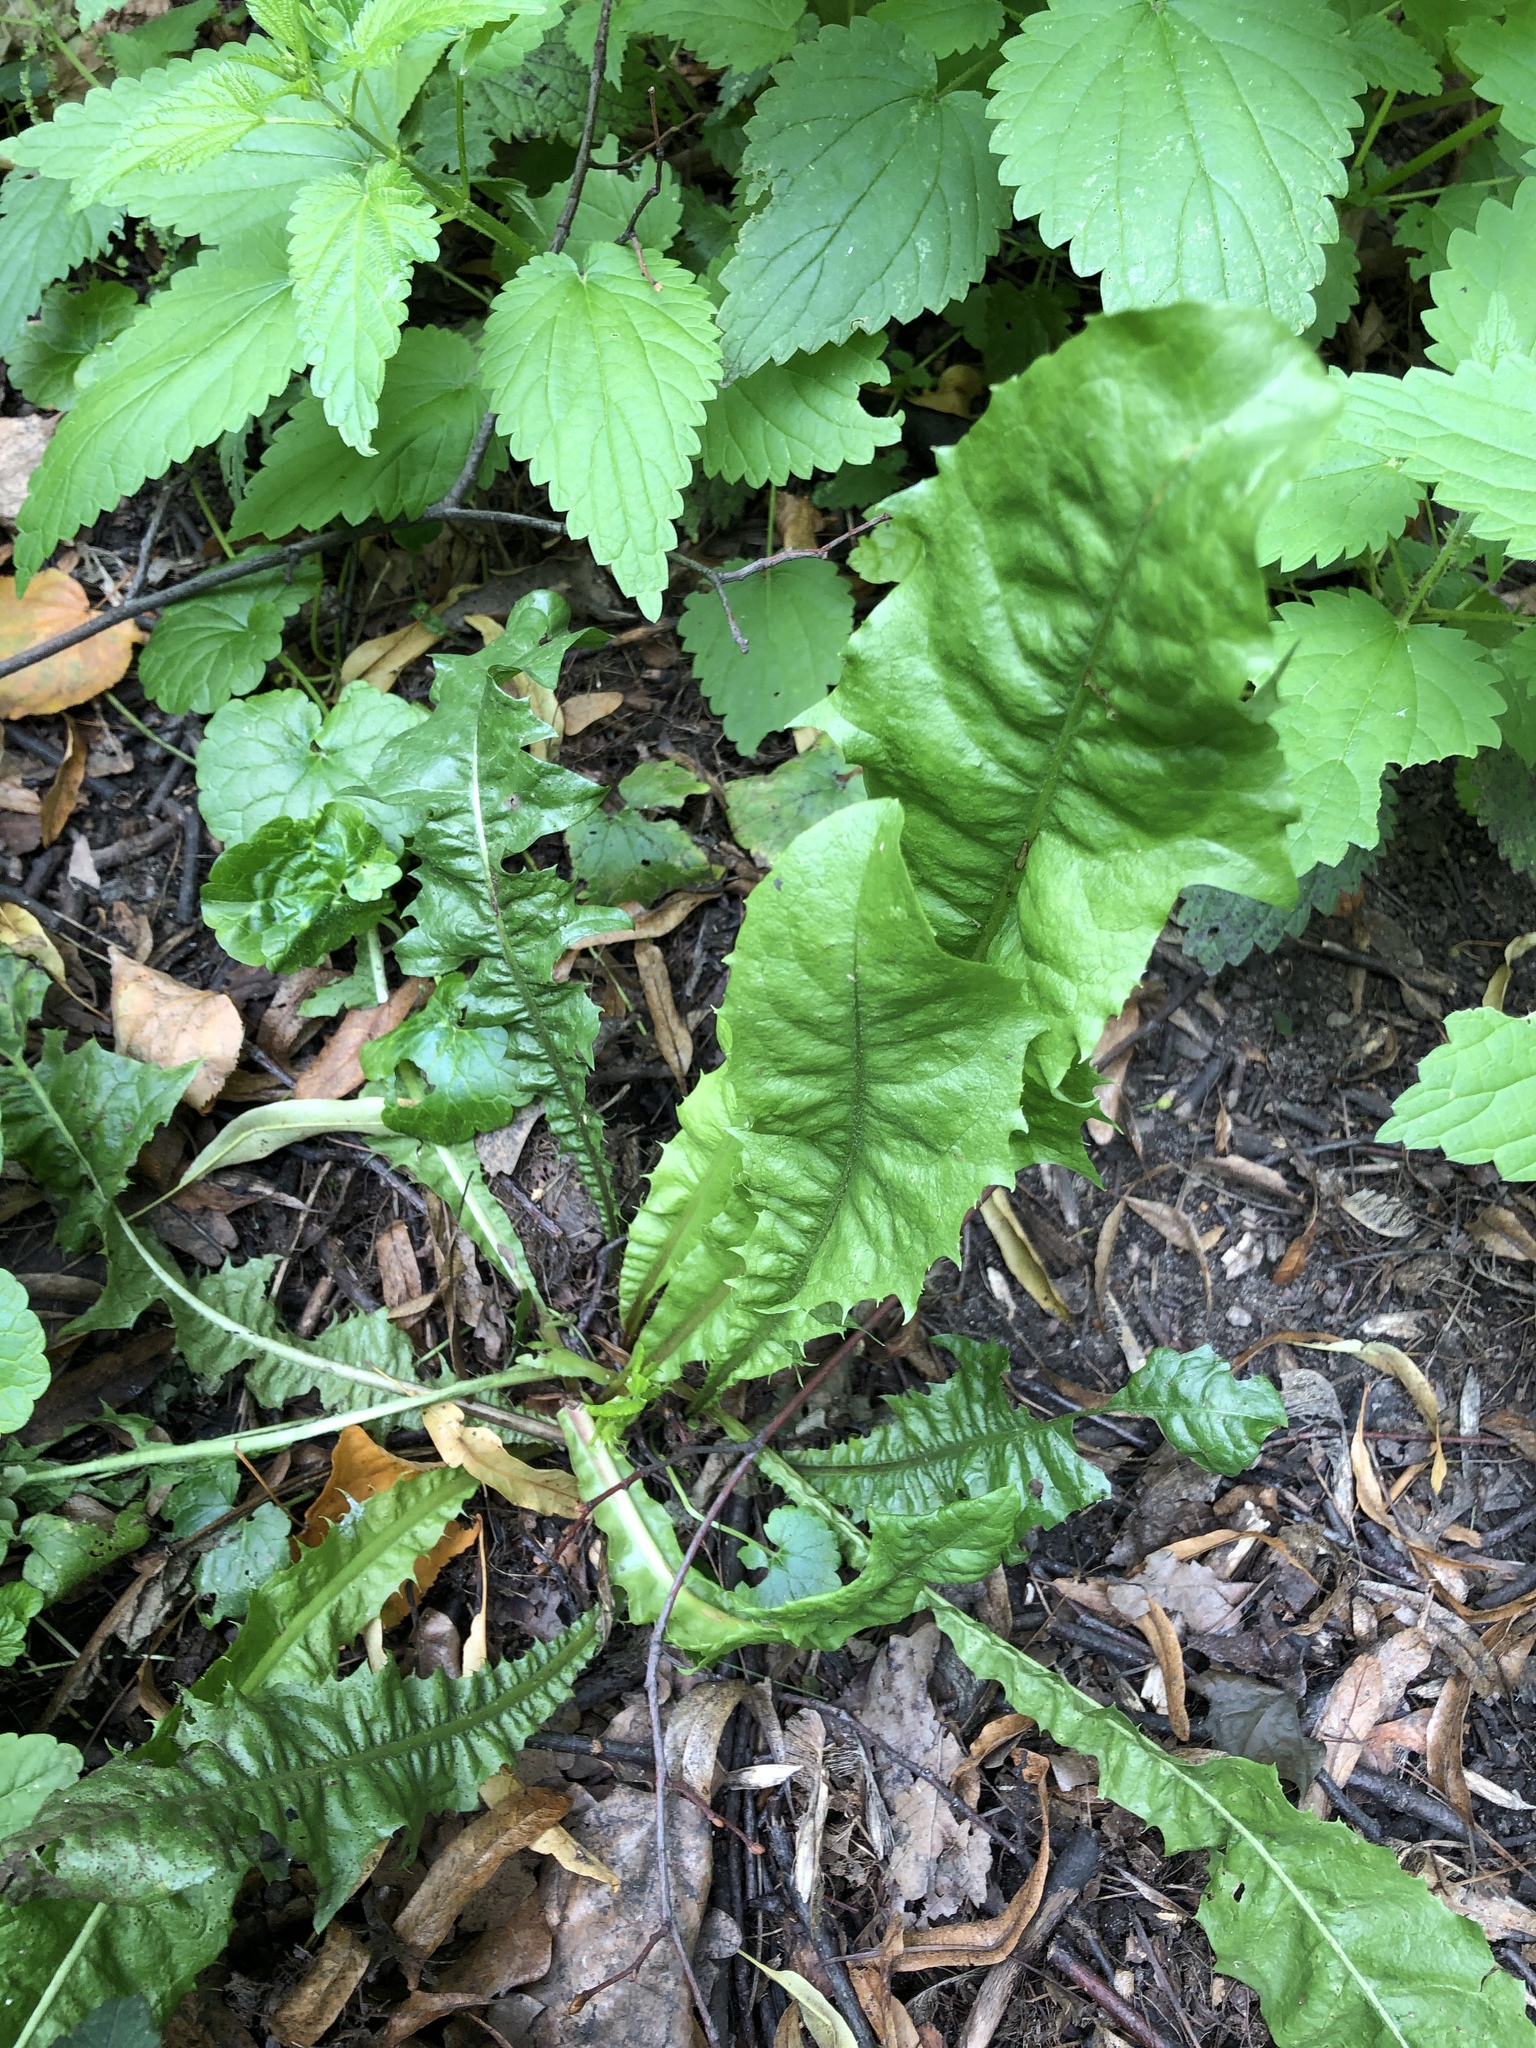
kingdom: Plantae
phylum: Tracheophyta
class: Magnoliopsida
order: Asterales
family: Asteraceae
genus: Taraxacum
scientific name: Taraxacum officinale
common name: Common dandelion
